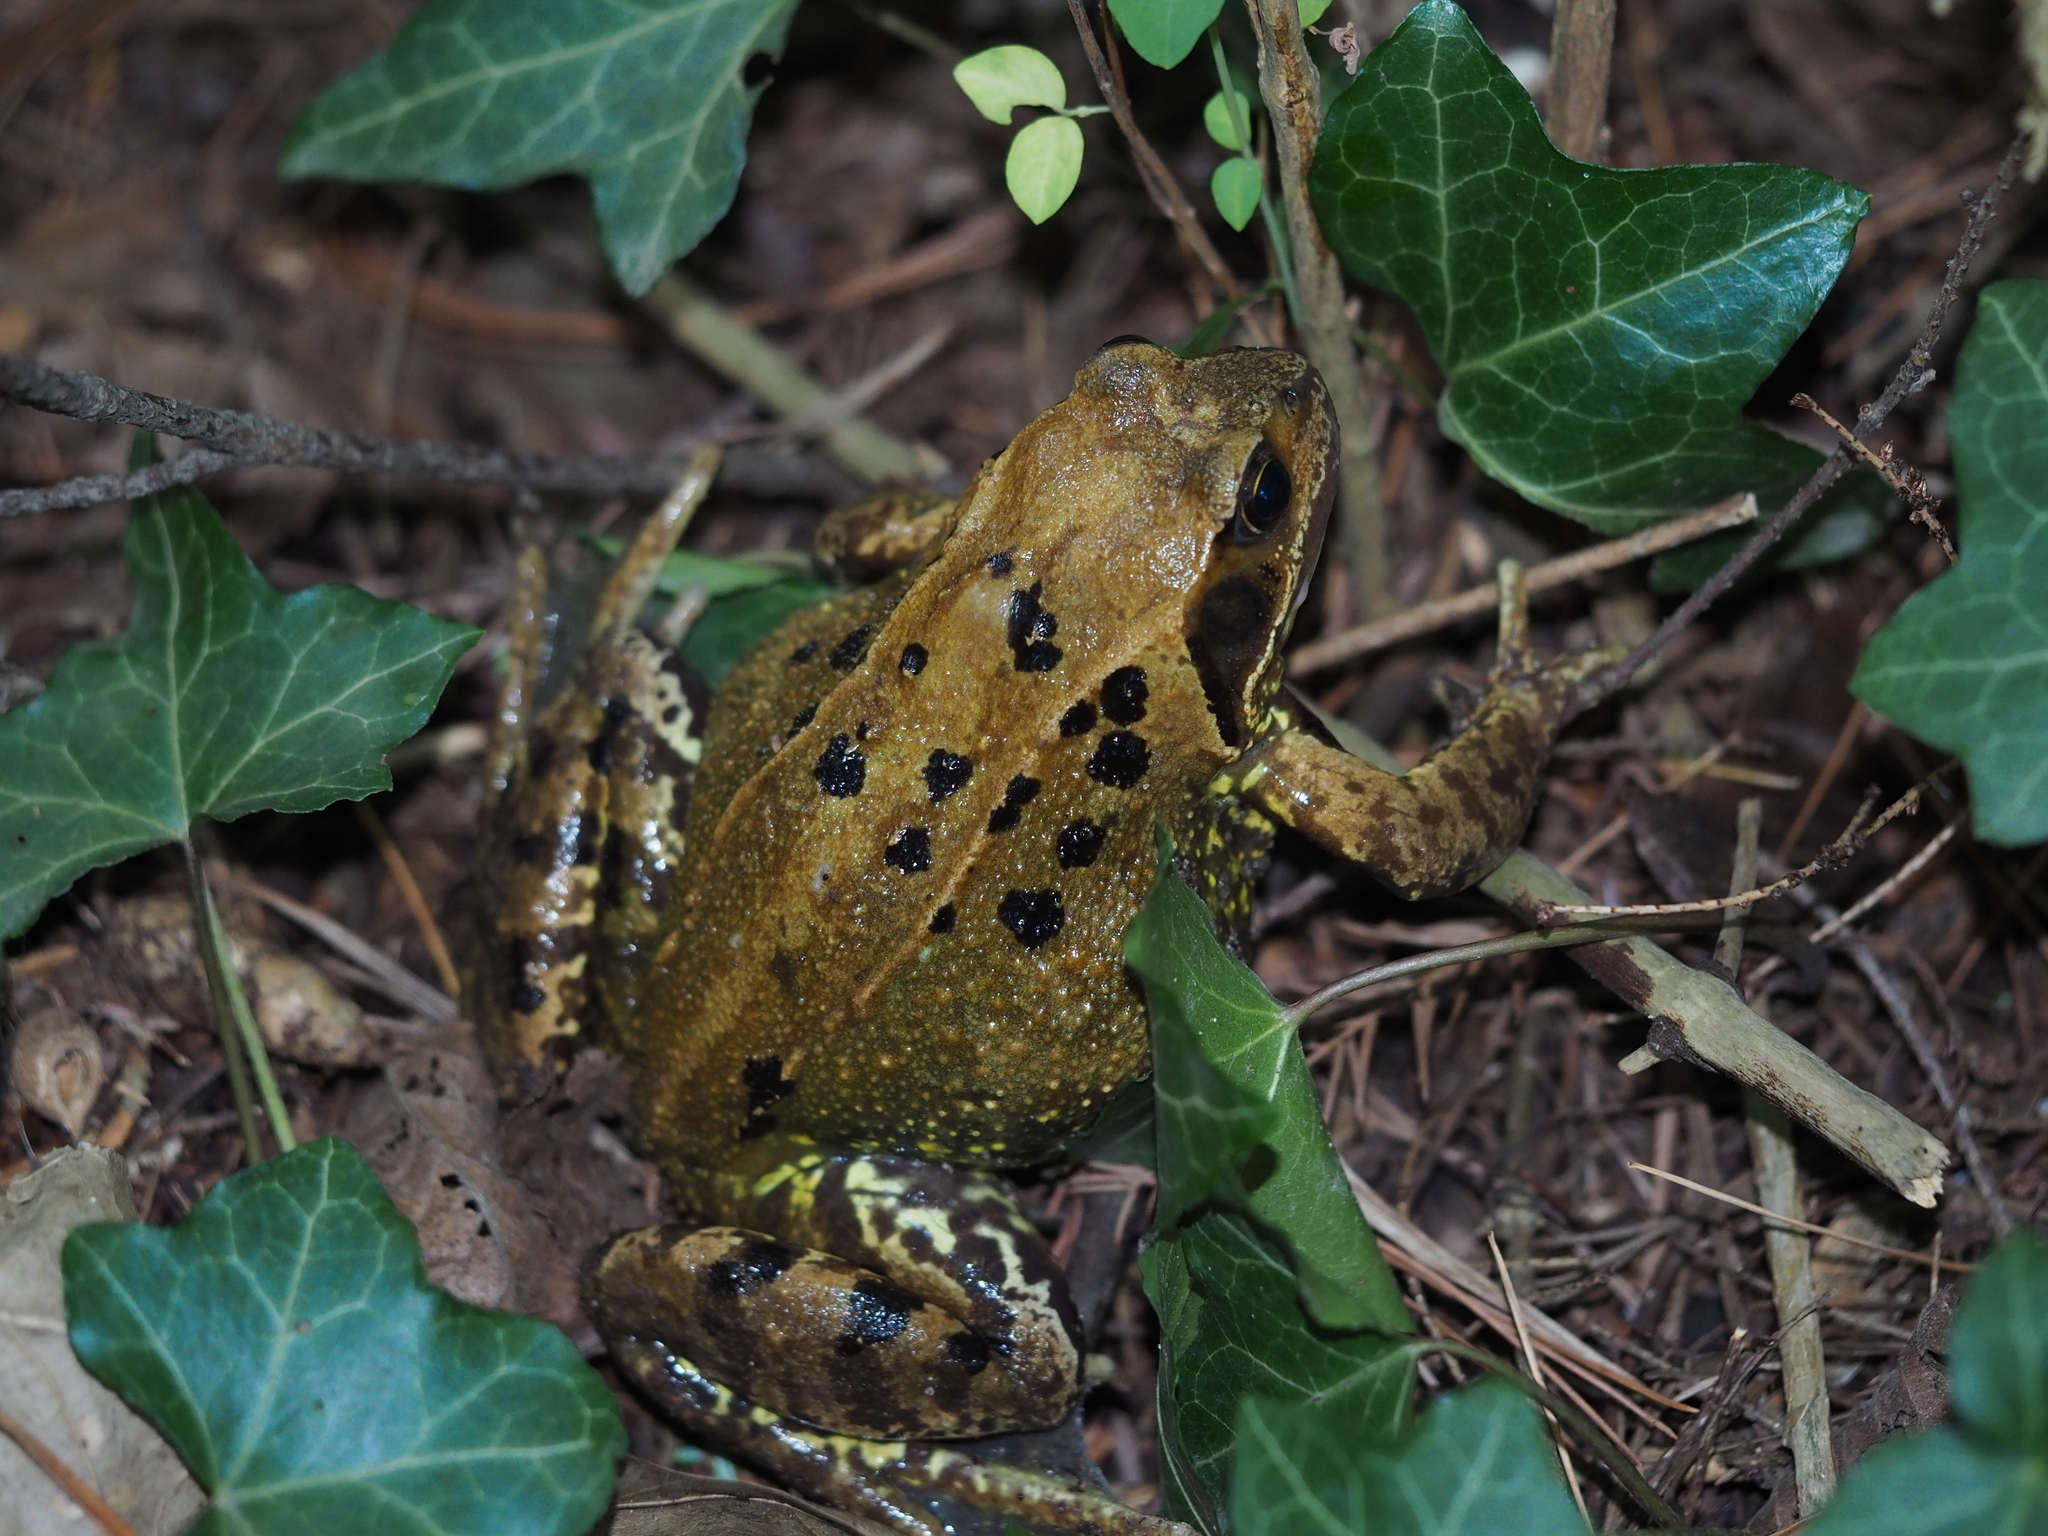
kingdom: Animalia
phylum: Chordata
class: Amphibia
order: Anura
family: Ranidae
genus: Rana
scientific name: Rana temporaria
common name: Common frog
